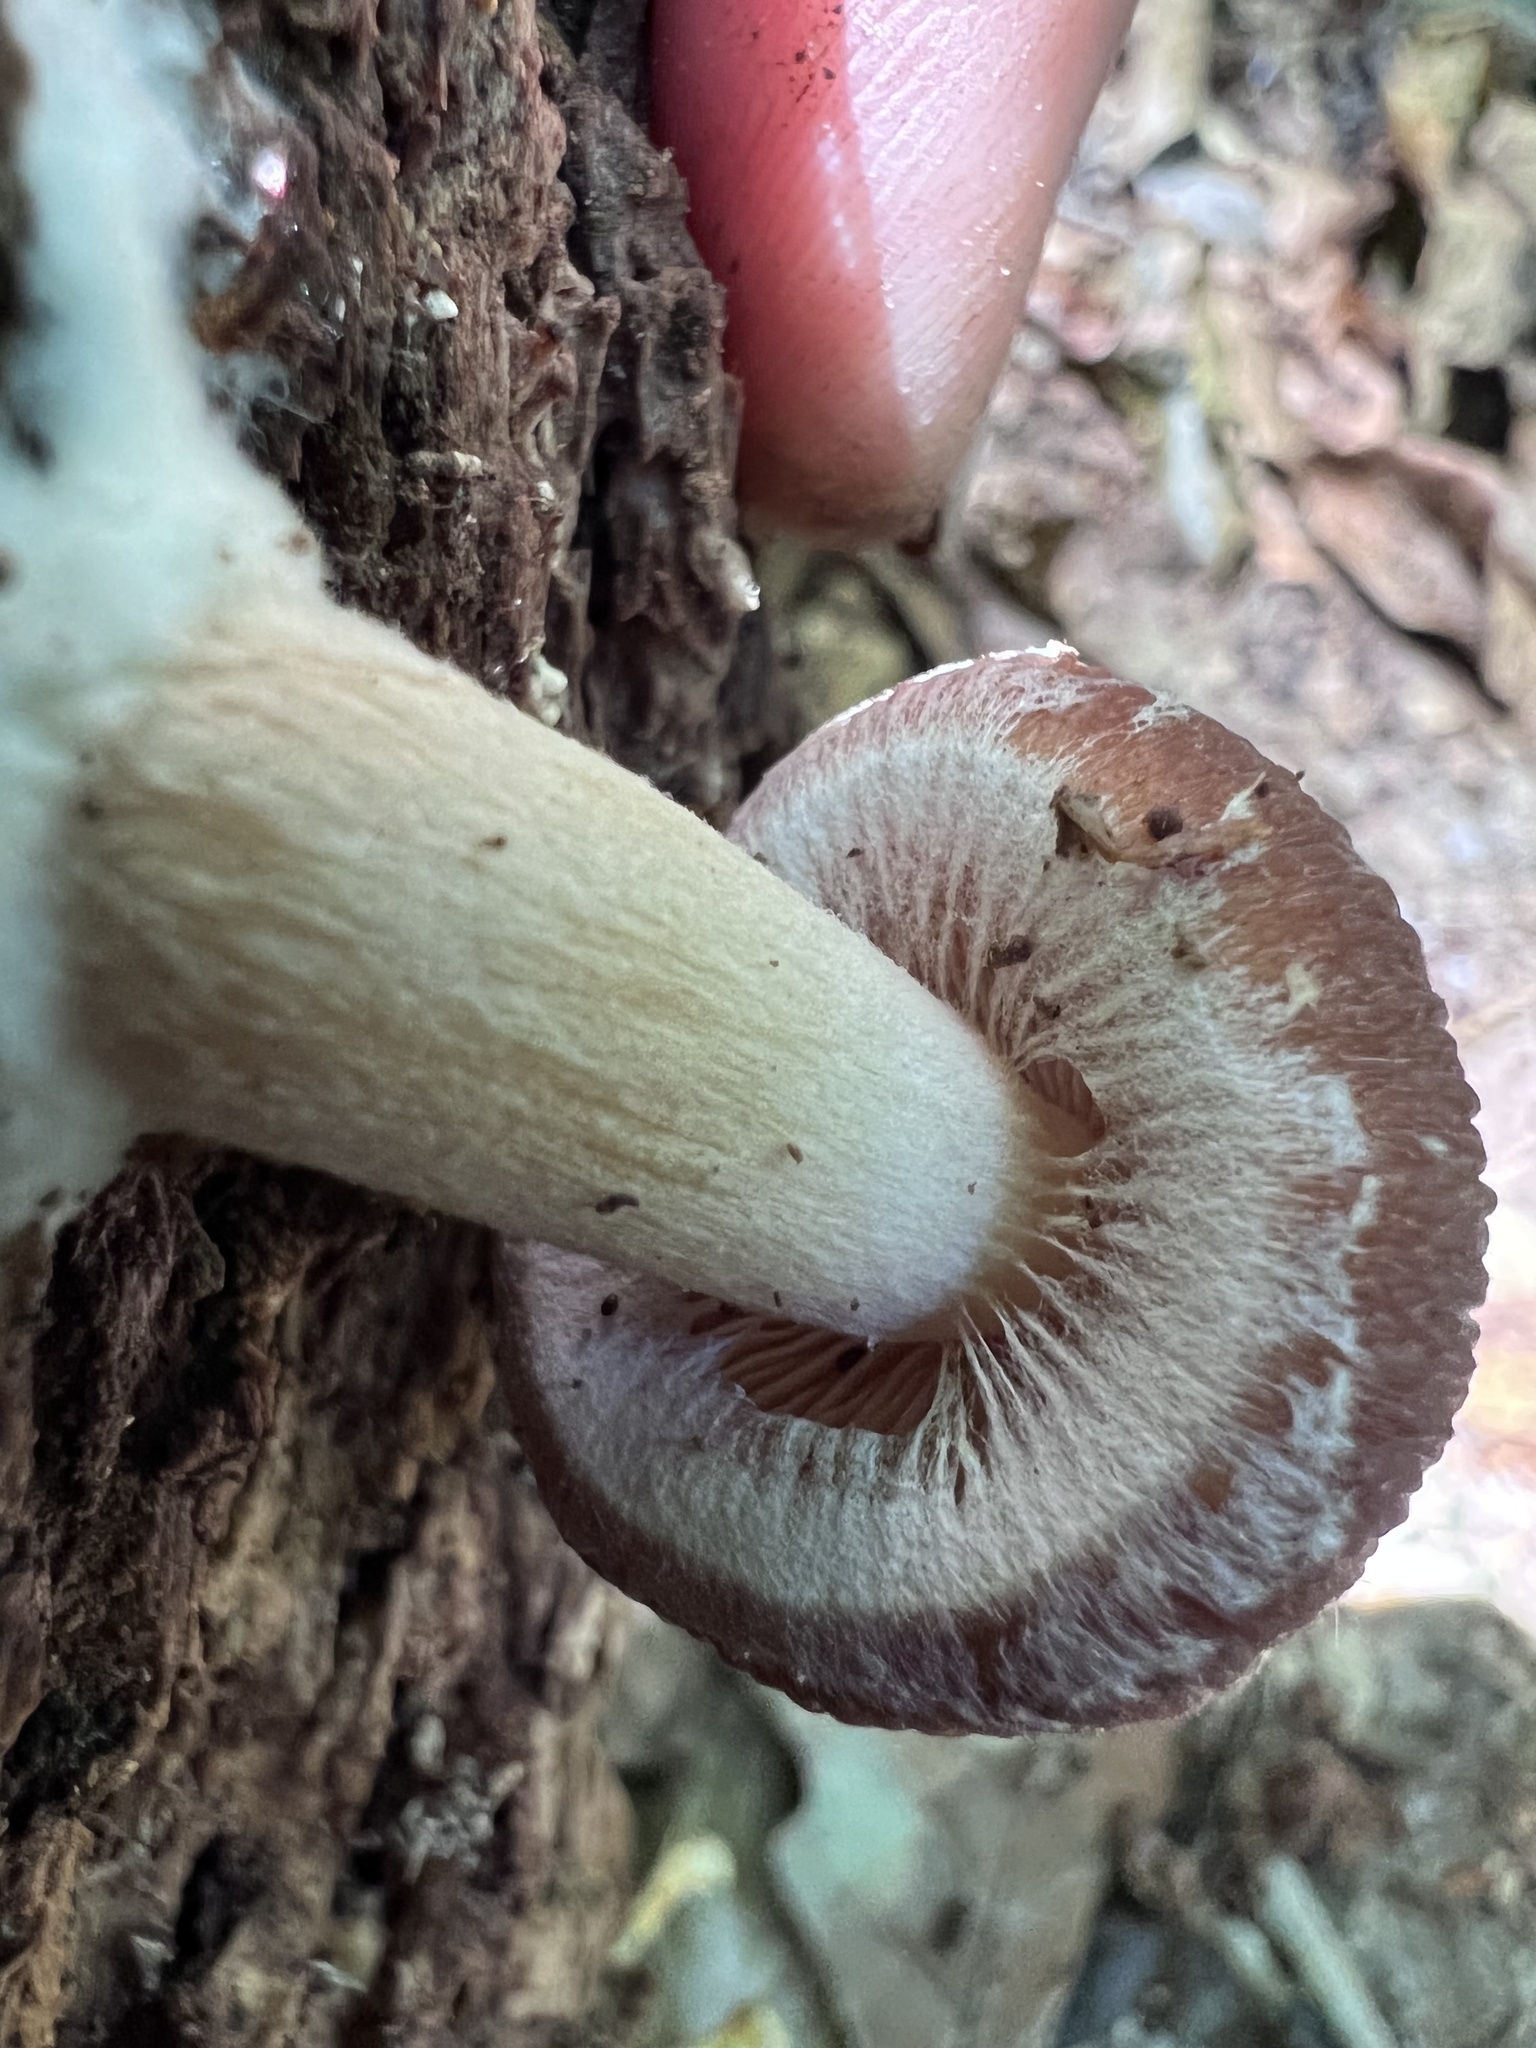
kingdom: Fungi
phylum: Basidiomycota
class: Agaricomycetes
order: Agaricales
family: Psathyrellaceae
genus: Typhrasa
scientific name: Typhrasa gossypina
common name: Wrinkled psathyrella
